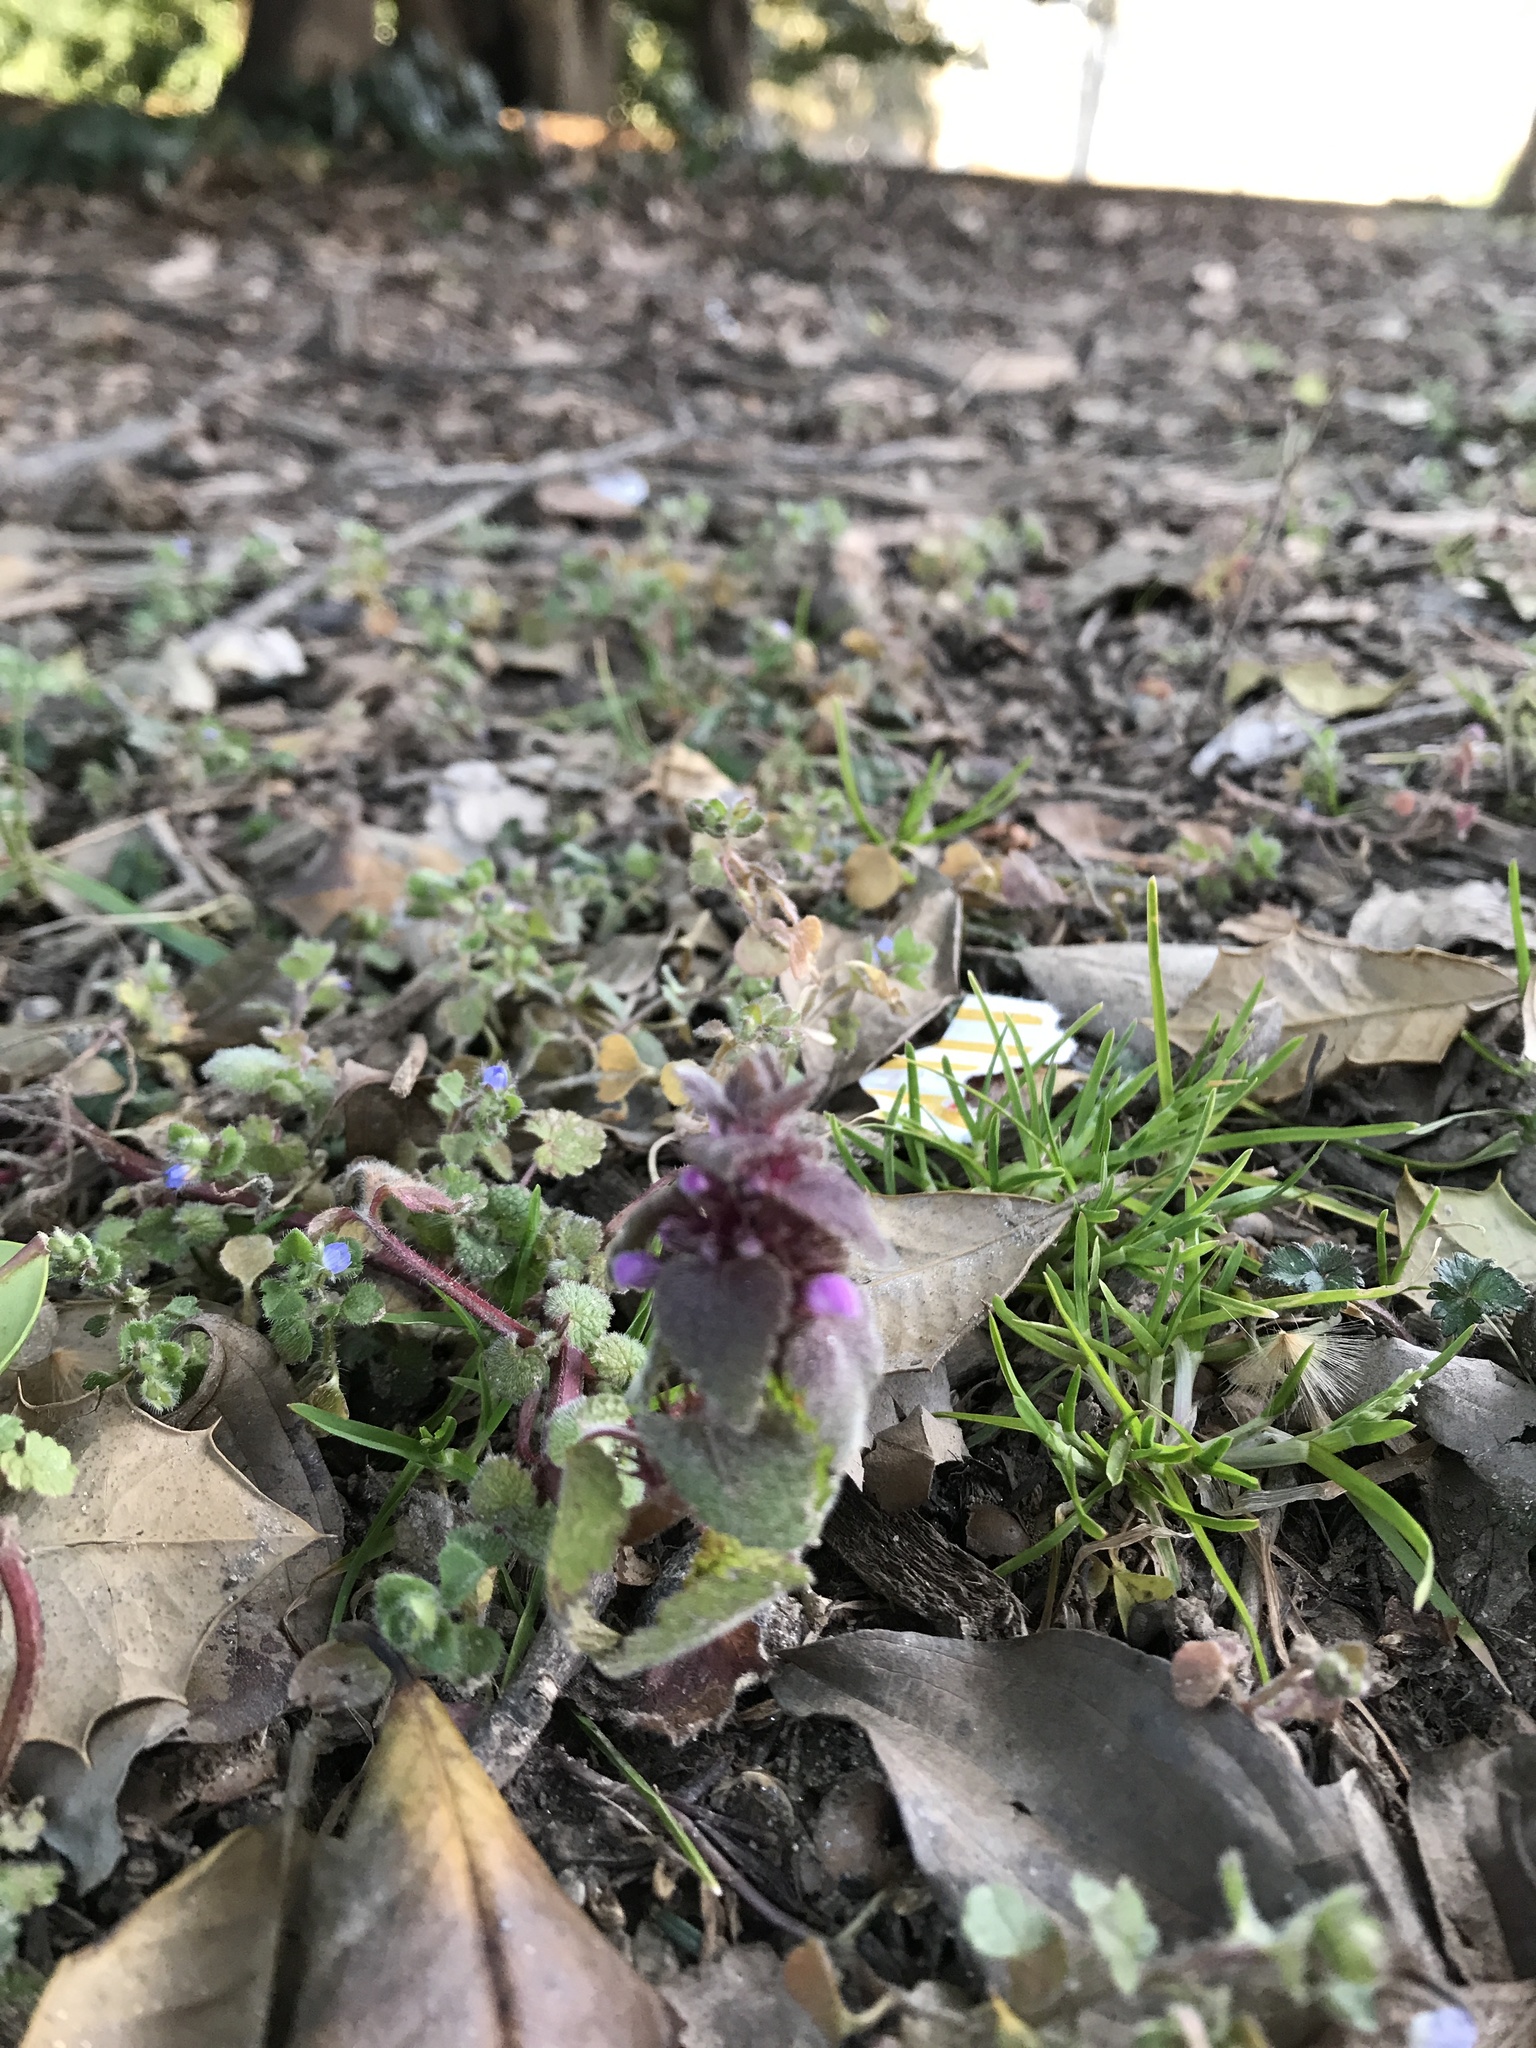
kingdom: Plantae
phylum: Tracheophyta
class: Magnoliopsida
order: Lamiales
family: Lamiaceae
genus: Lamium
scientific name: Lamium purpureum
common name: Red dead-nettle
